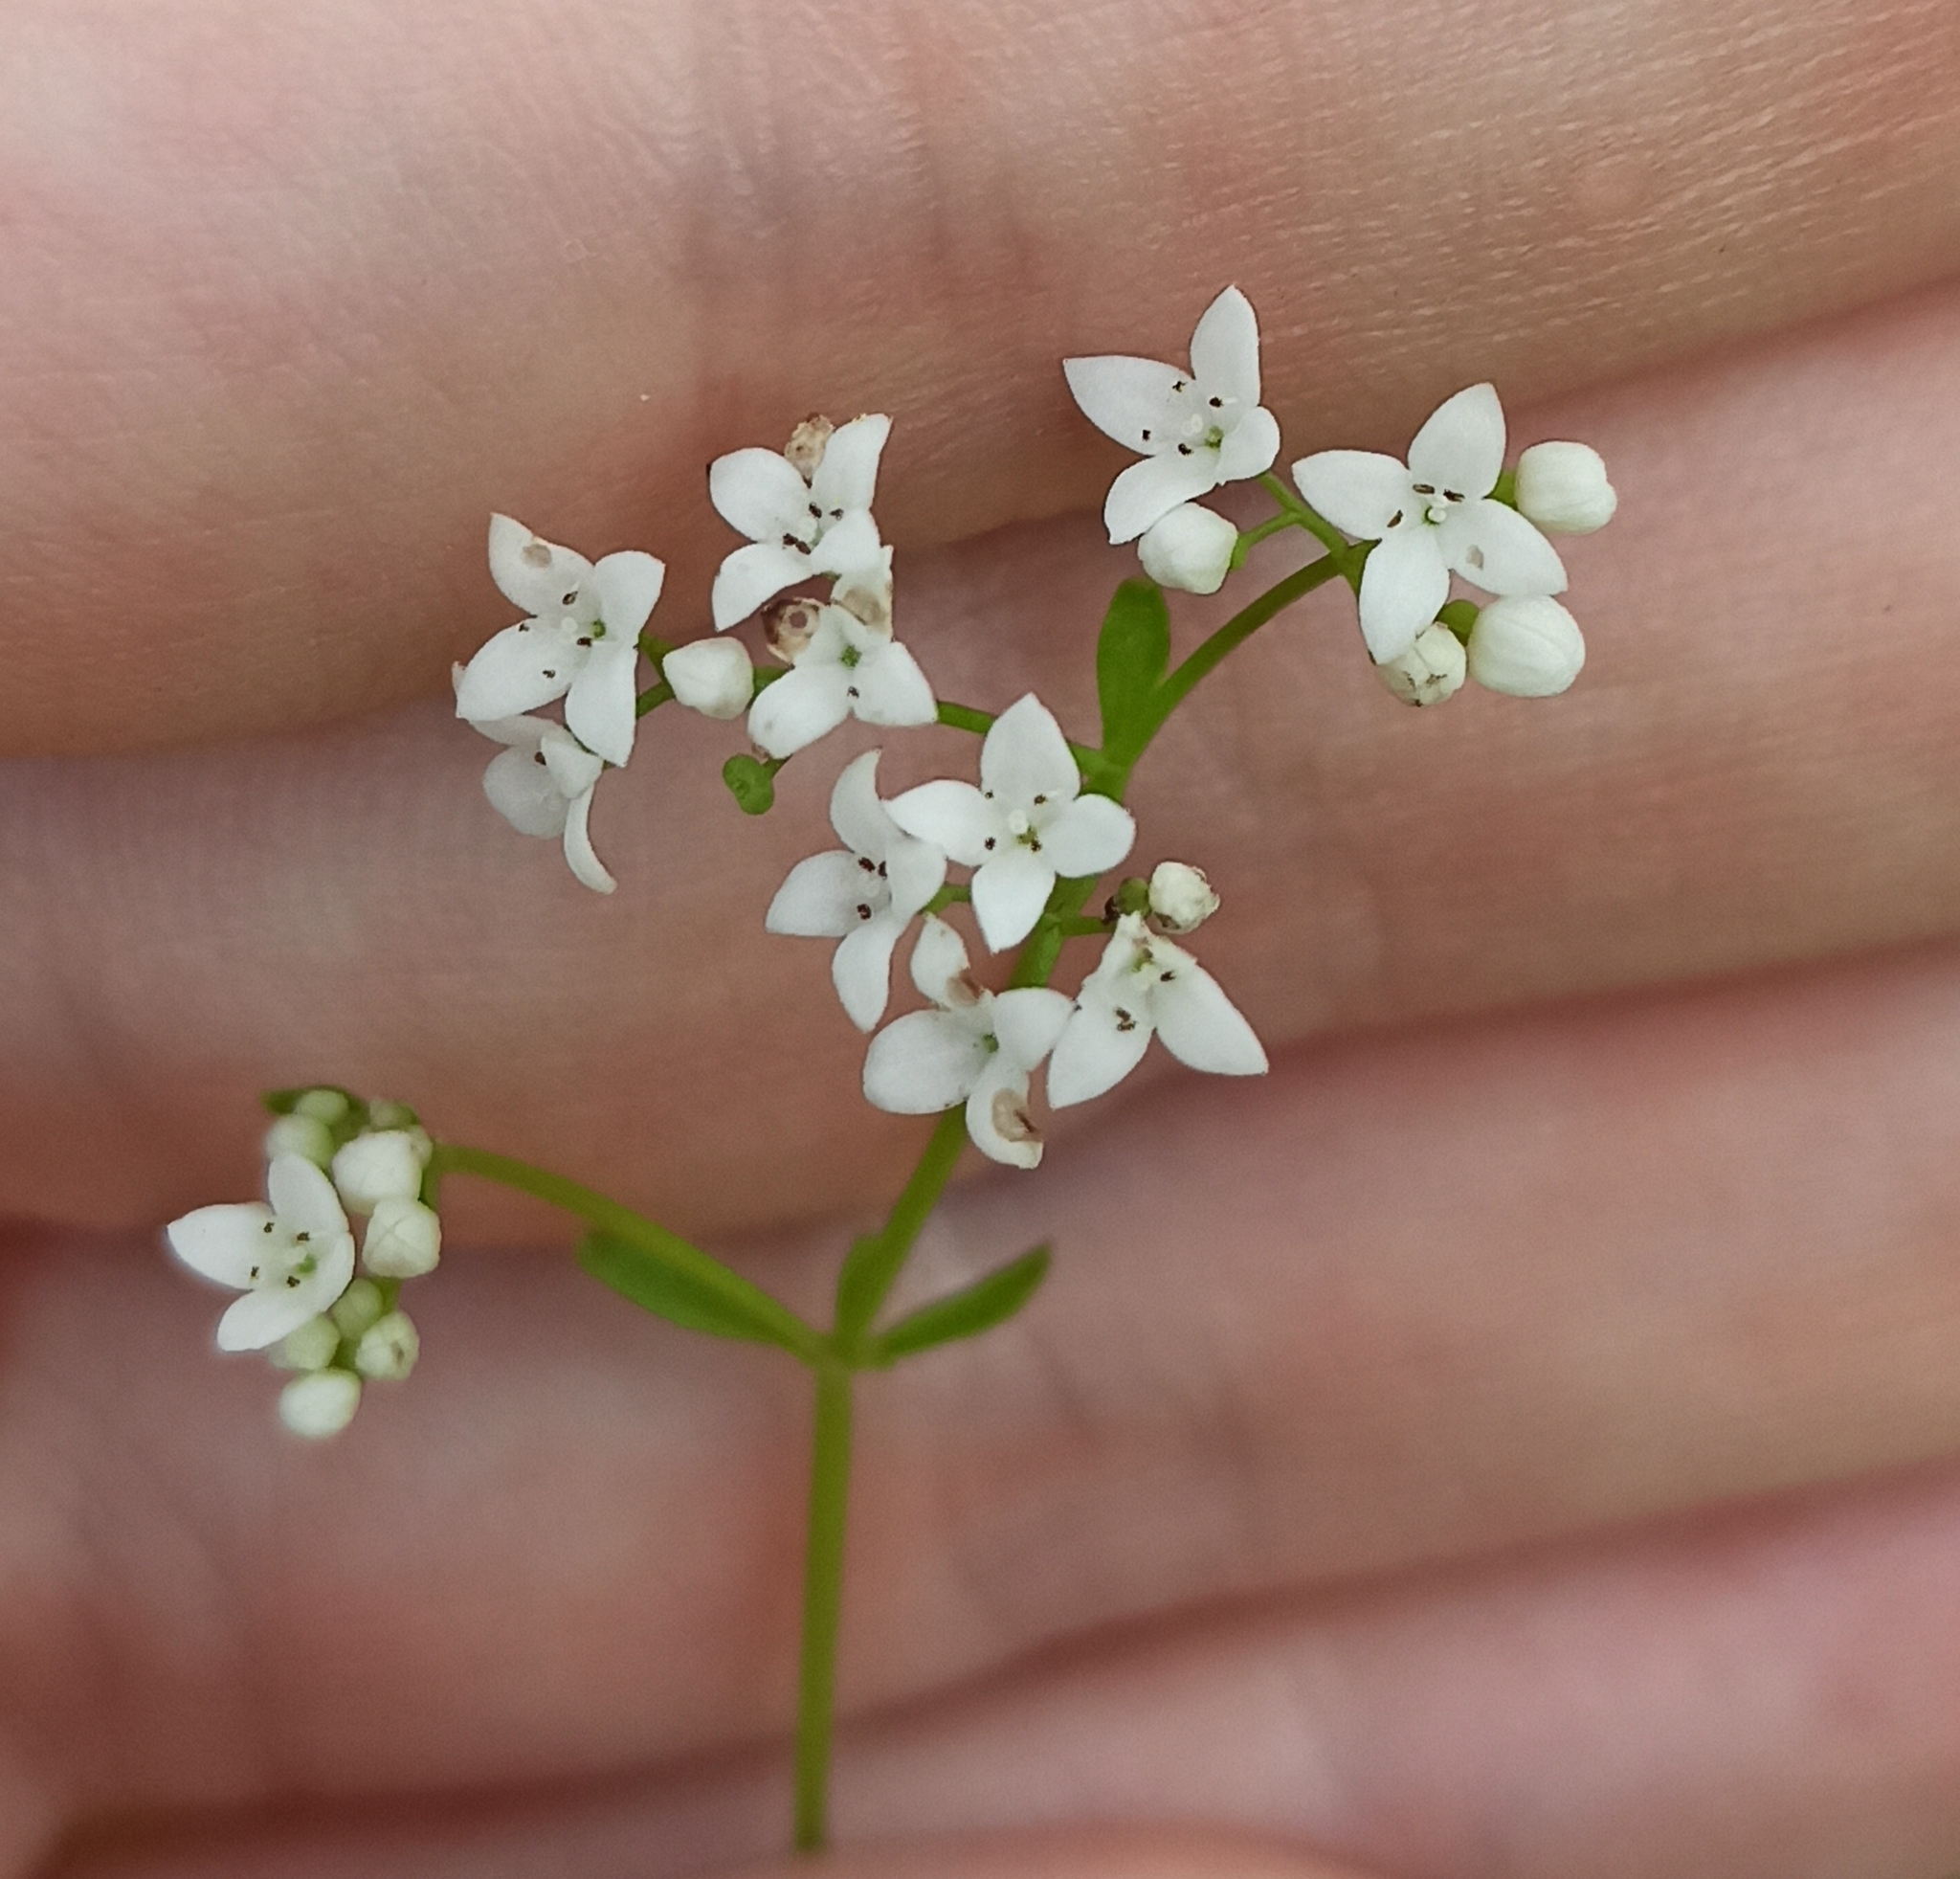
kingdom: Plantae
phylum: Tracheophyta
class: Magnoliopsida
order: Gentianales
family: Rubiaceae
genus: Galium
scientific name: Galium palustre
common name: Common marsh-bedstraw
